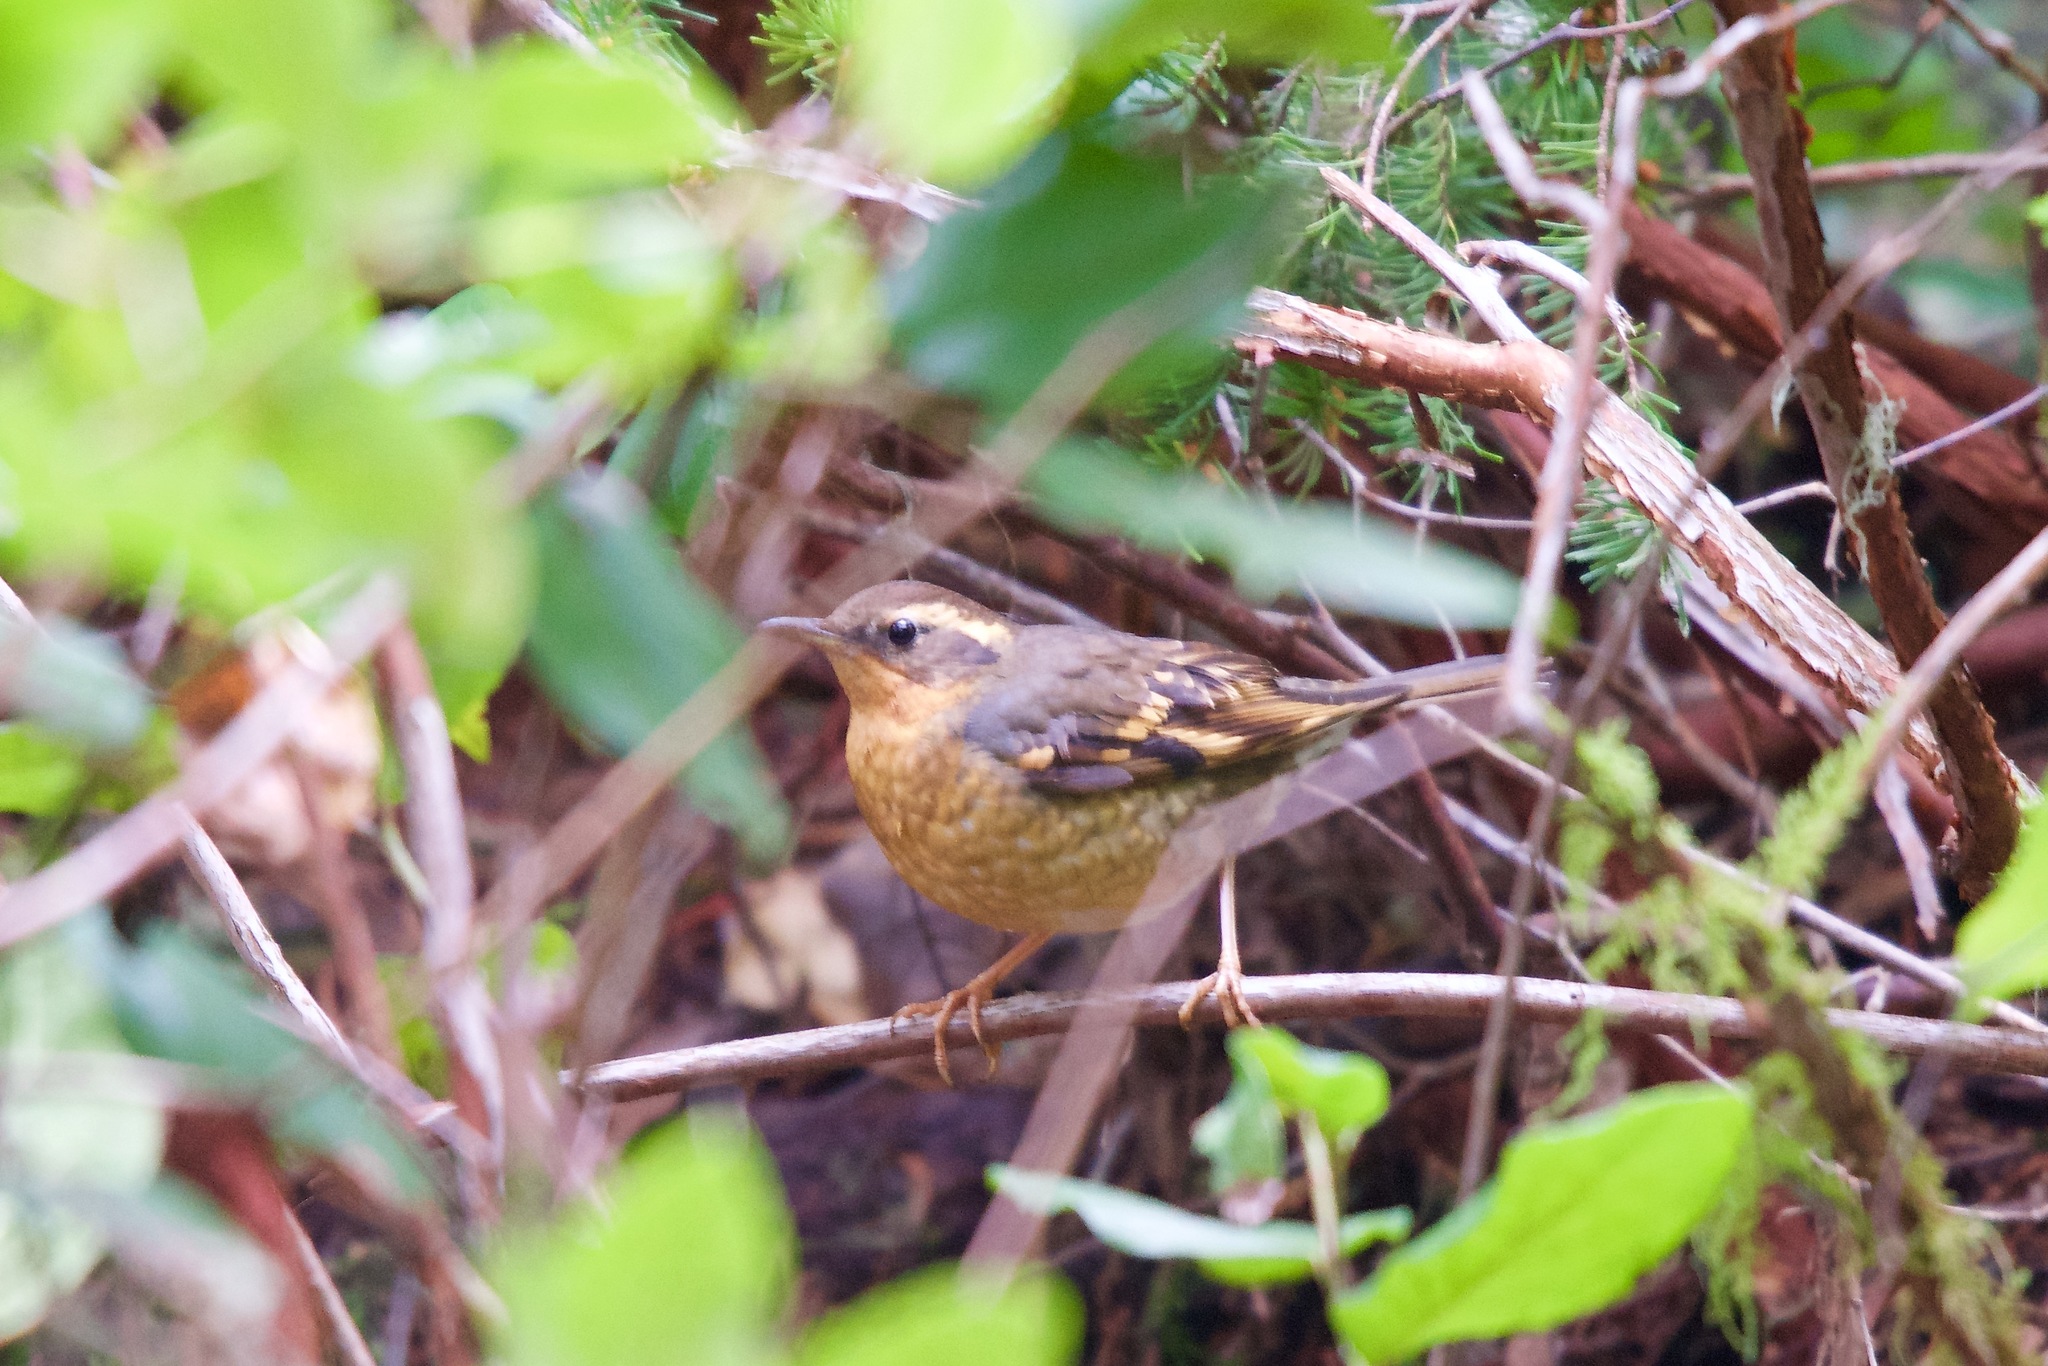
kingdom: Animalia
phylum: Chordata
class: Aves
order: Passeriformes
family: Turdidae
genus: Ixoreus
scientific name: Ixoreus naevius
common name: Varied thrush
